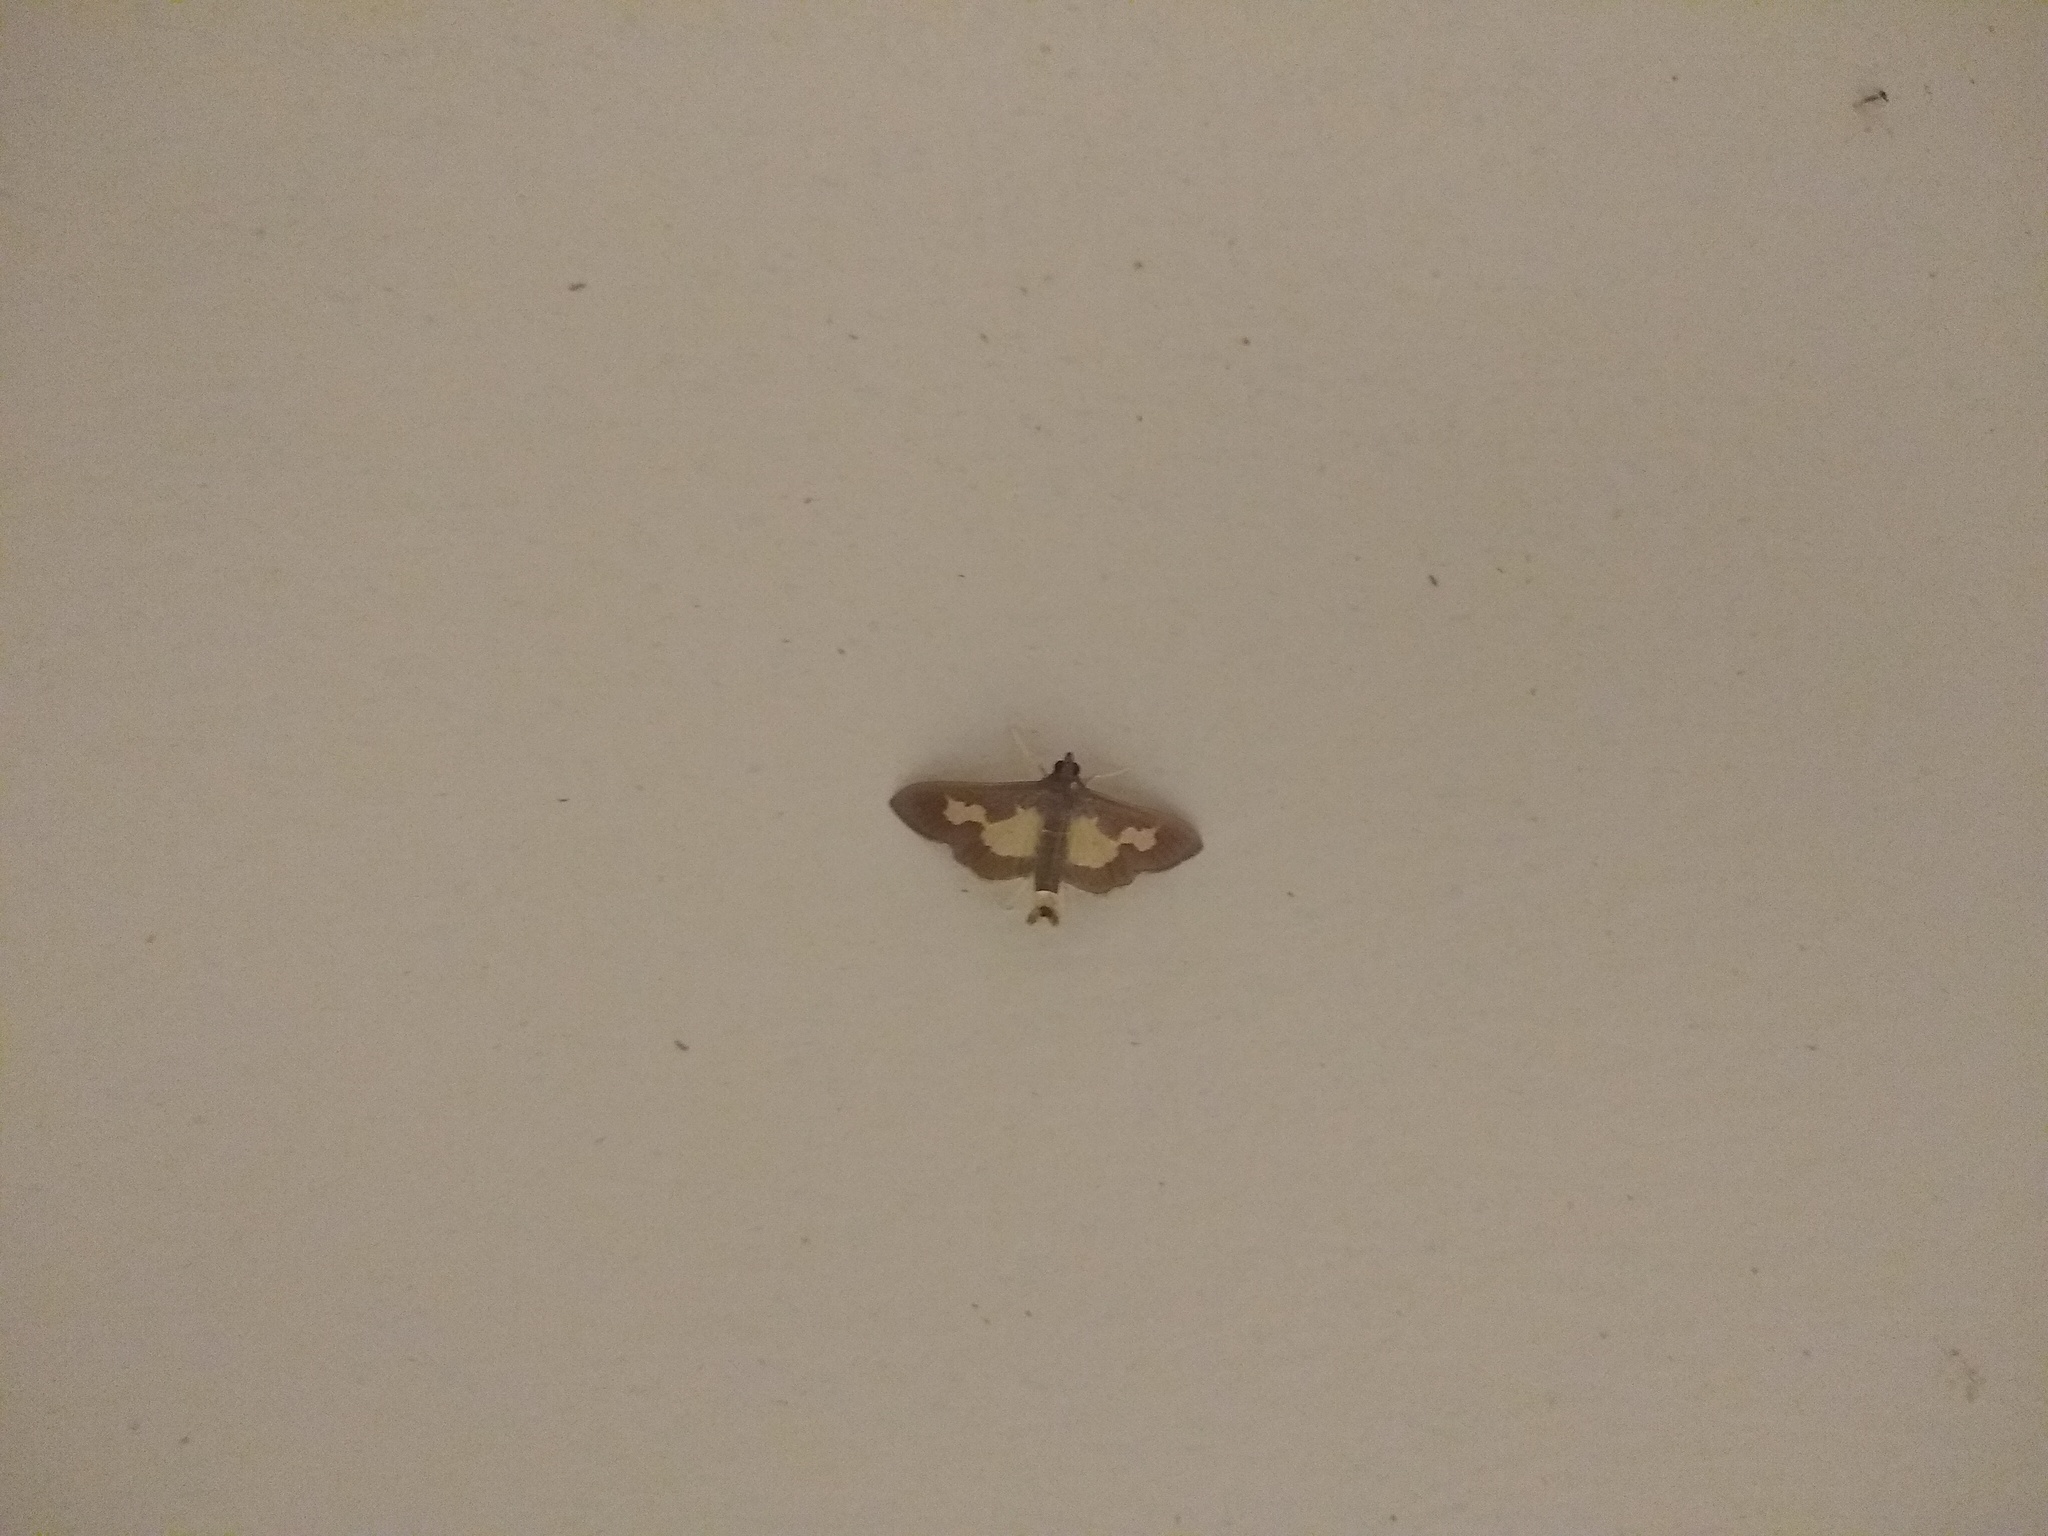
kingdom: Animalia
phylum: Arthropoda
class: Insecta
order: Lepidoptera
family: Crambidae
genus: Cryptographis
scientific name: Cryptographis nitidalis
